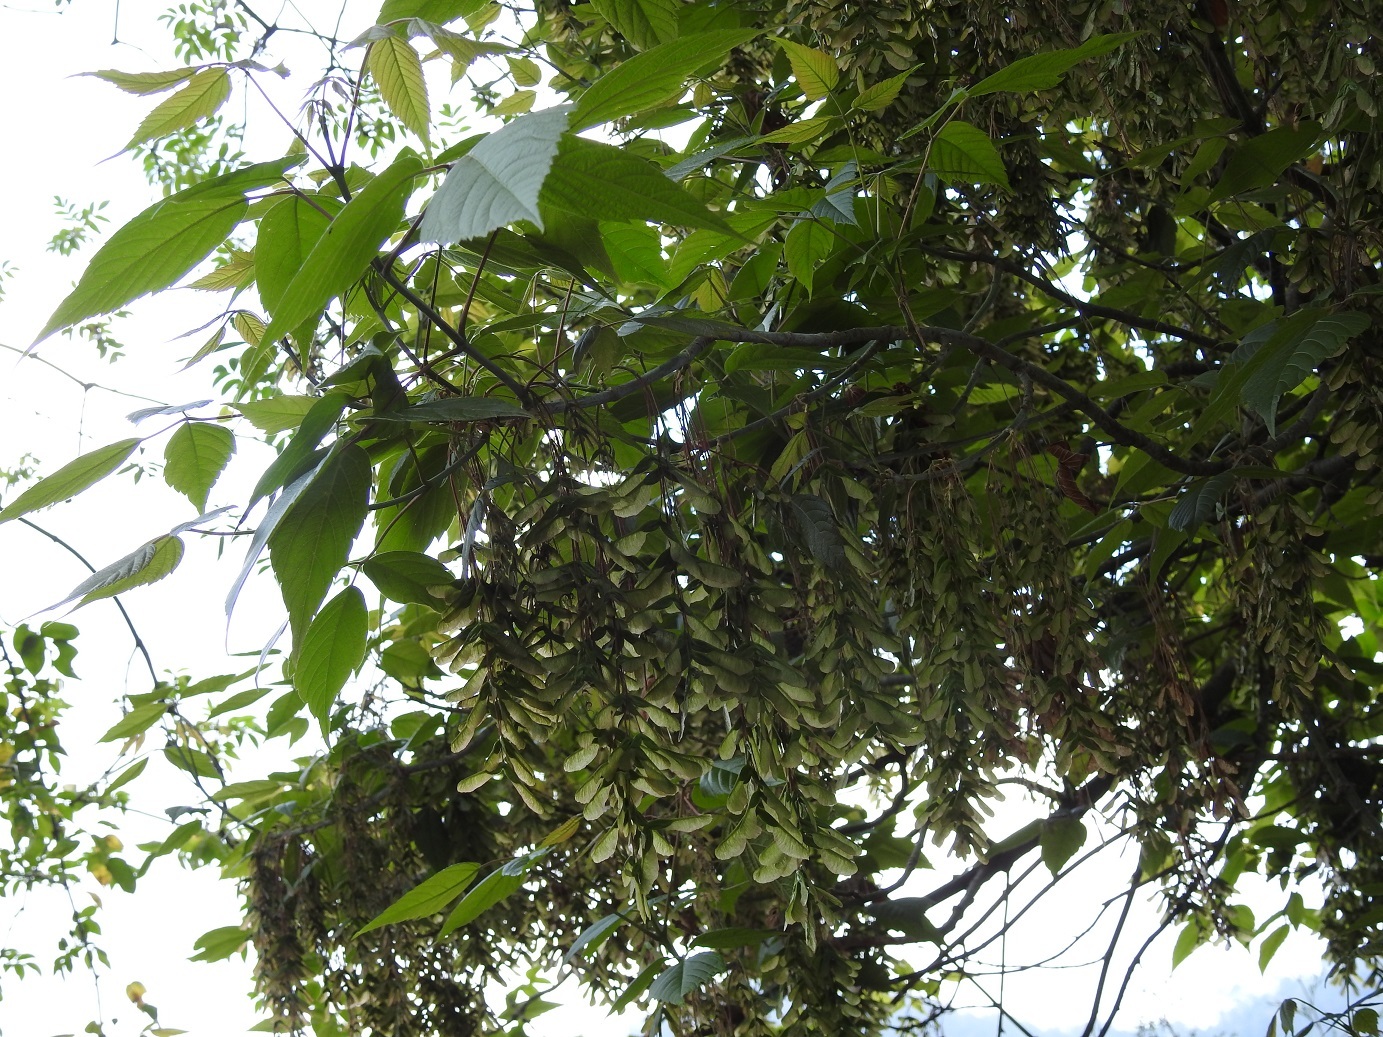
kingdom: Plantae
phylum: Tracheophyta
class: Magnoliopsida
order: Sapindales
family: Sapindaceae
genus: Acer
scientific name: Acer negundo
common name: Ashleaf maple
